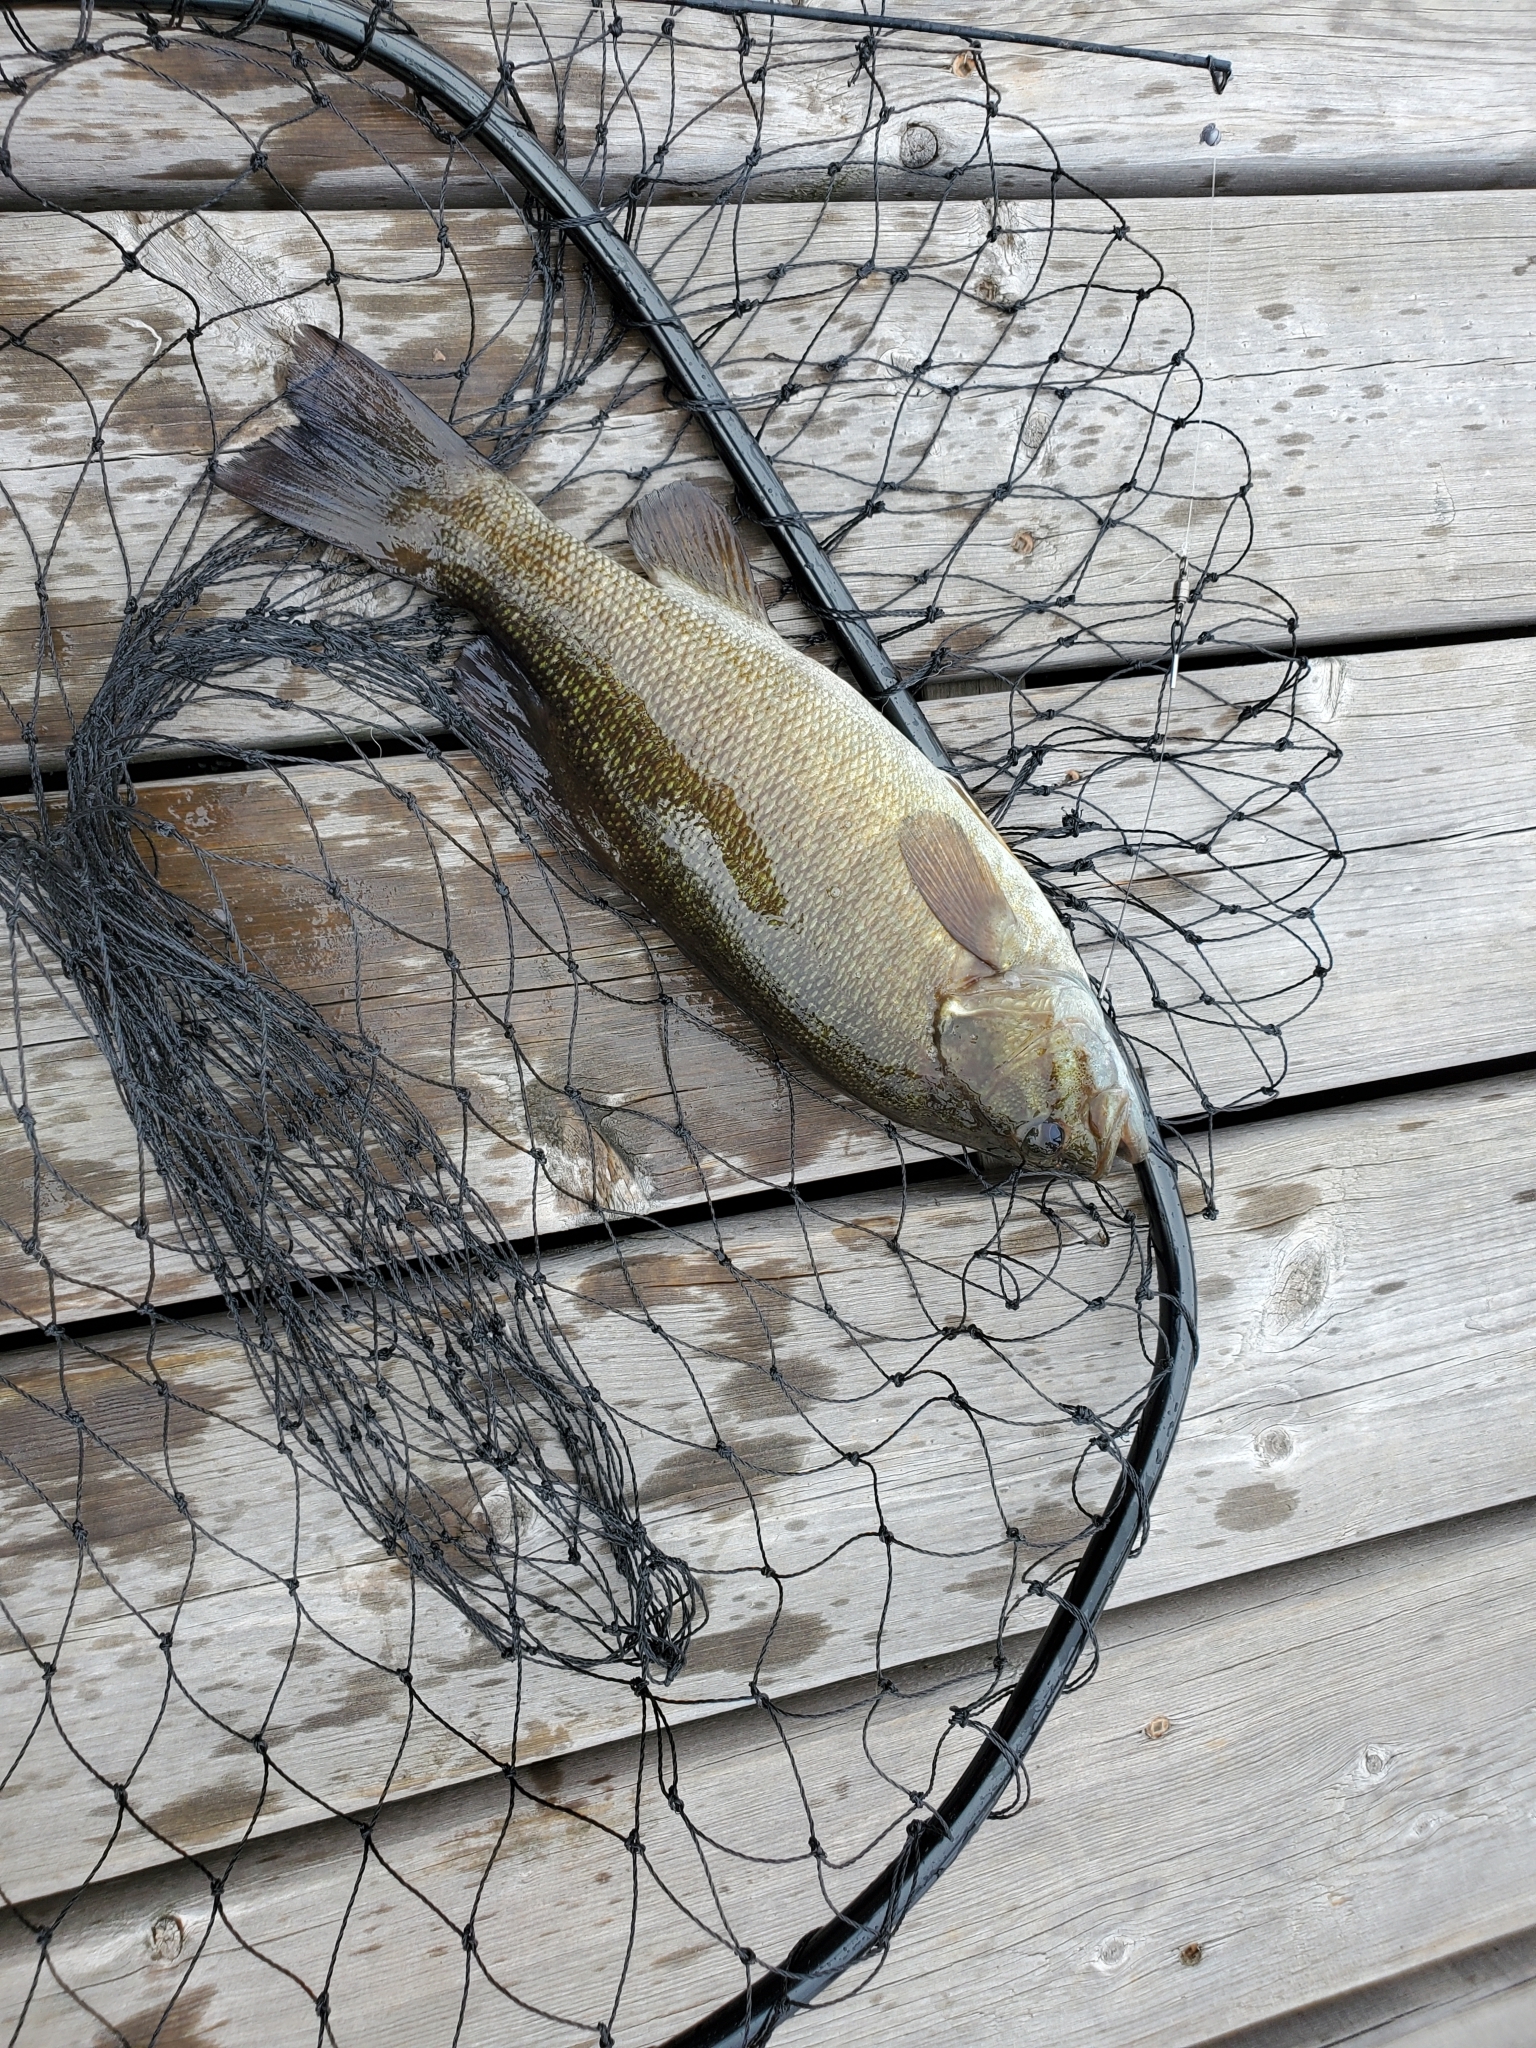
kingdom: Animalia
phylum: Chordata
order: Perciformes
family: Centrarchidae
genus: Micropterus
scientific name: Micropterus dolomieu
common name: Smallmouth bass
